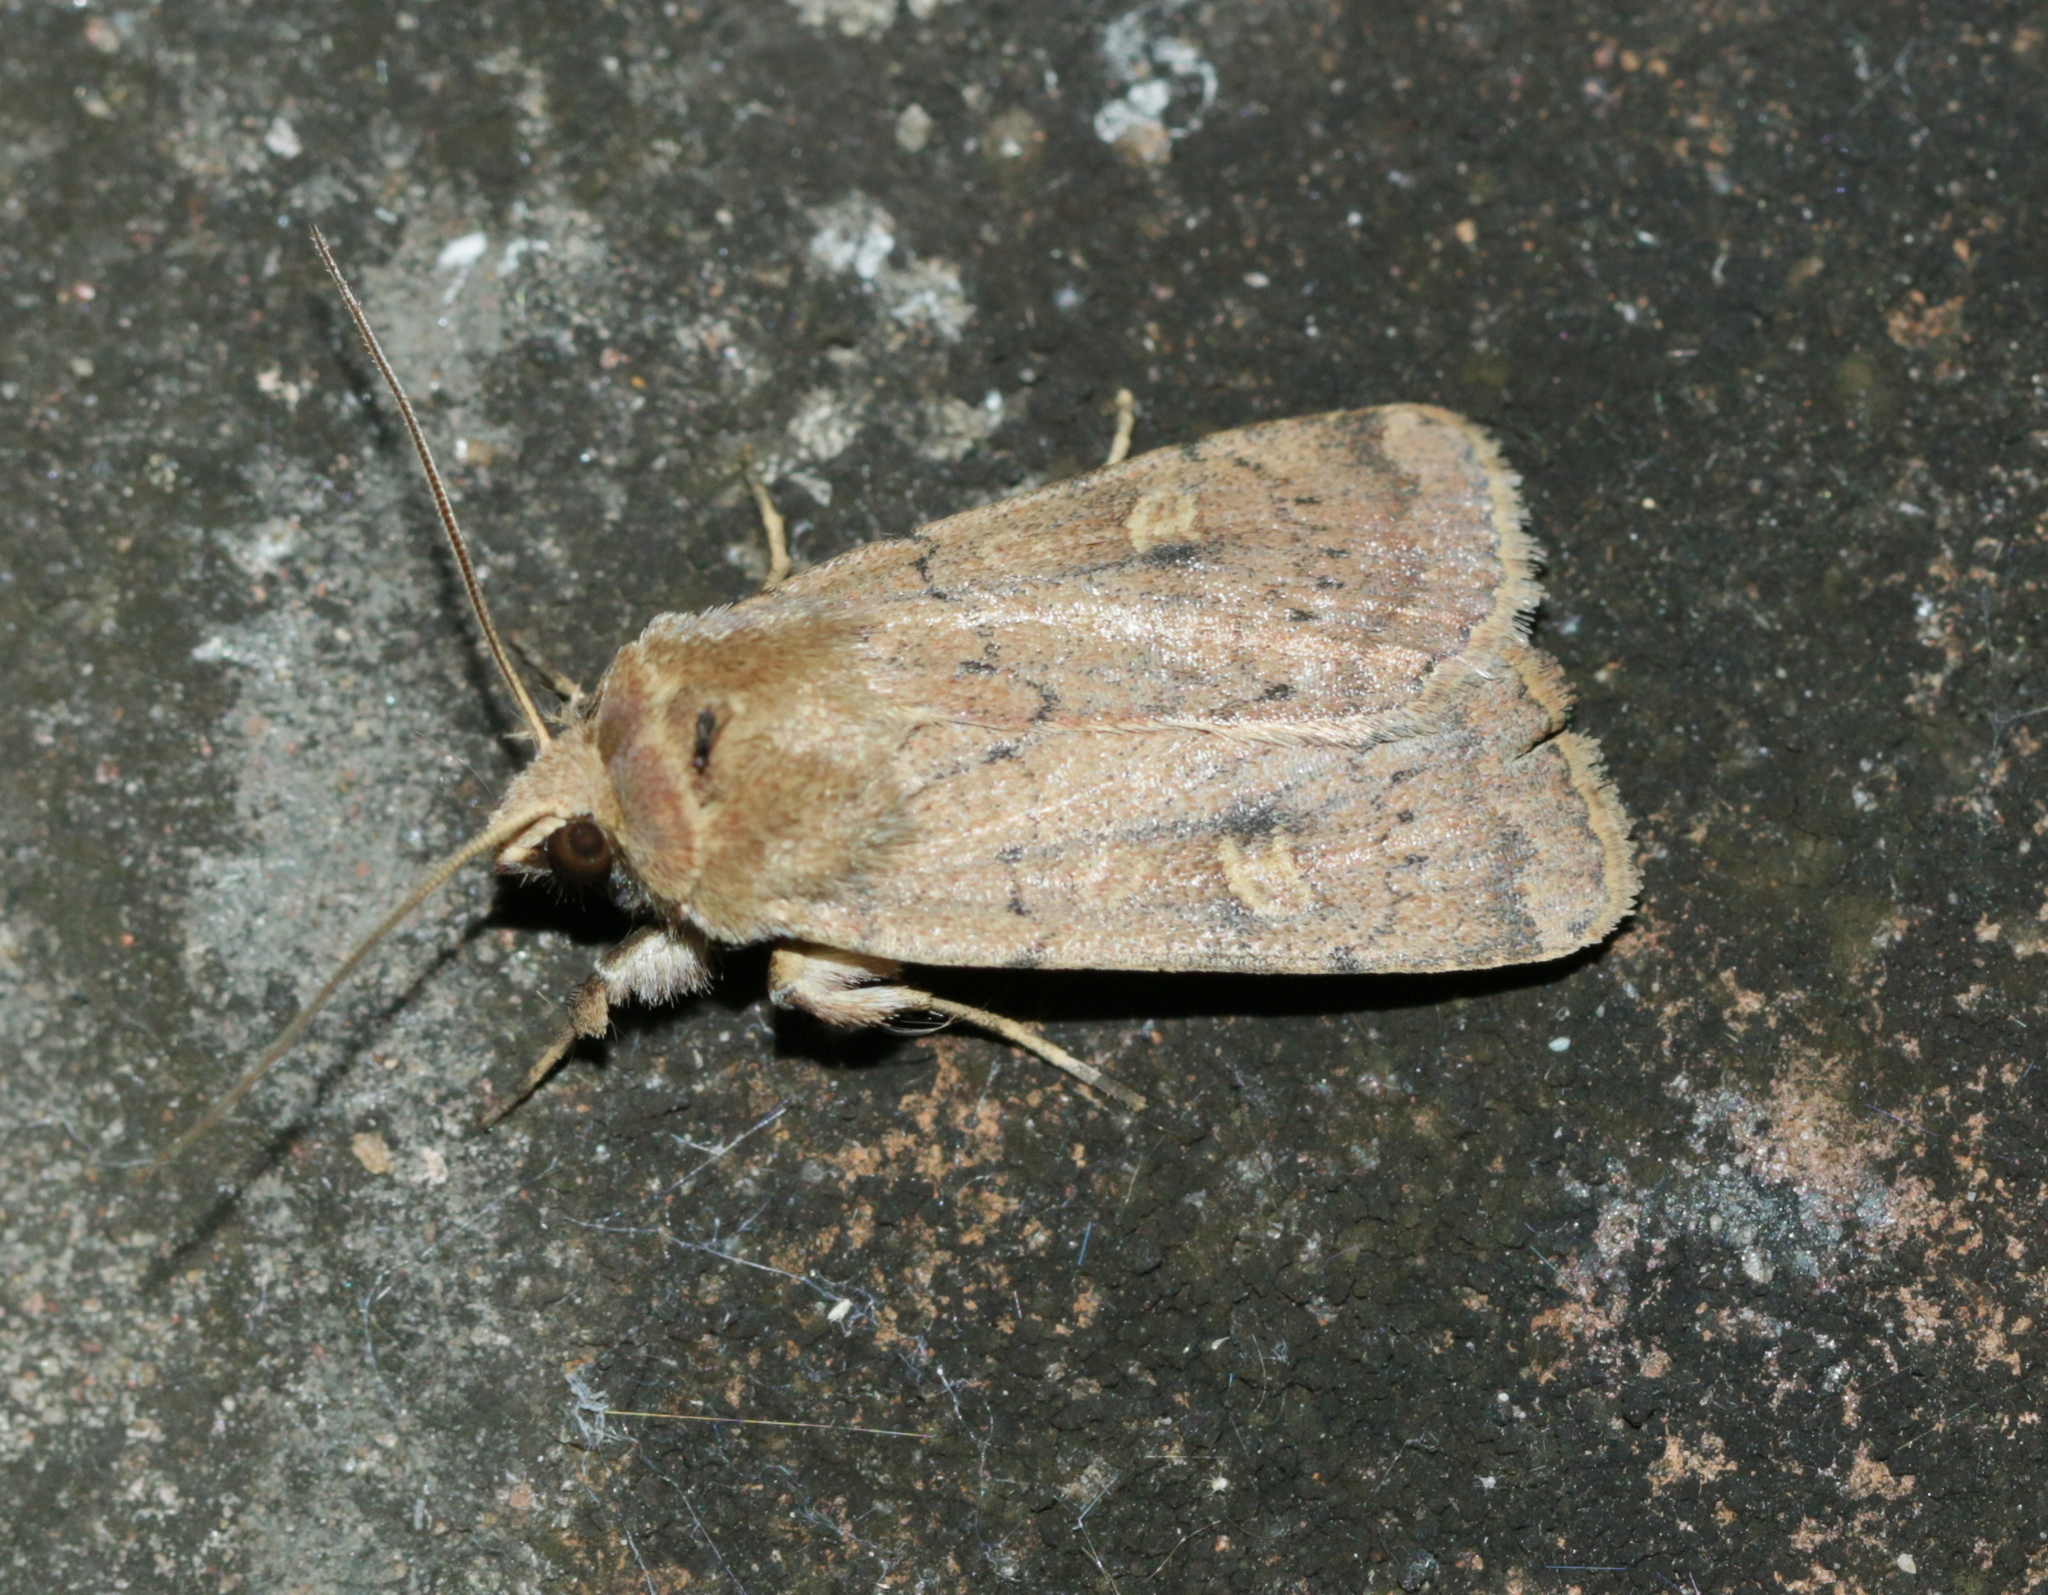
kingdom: Animalia
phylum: Arthropoda
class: Insecta
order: Lepidoptera
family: Noctuidae
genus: Xestia
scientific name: Xestia xanthographa
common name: Square-spot rustic
